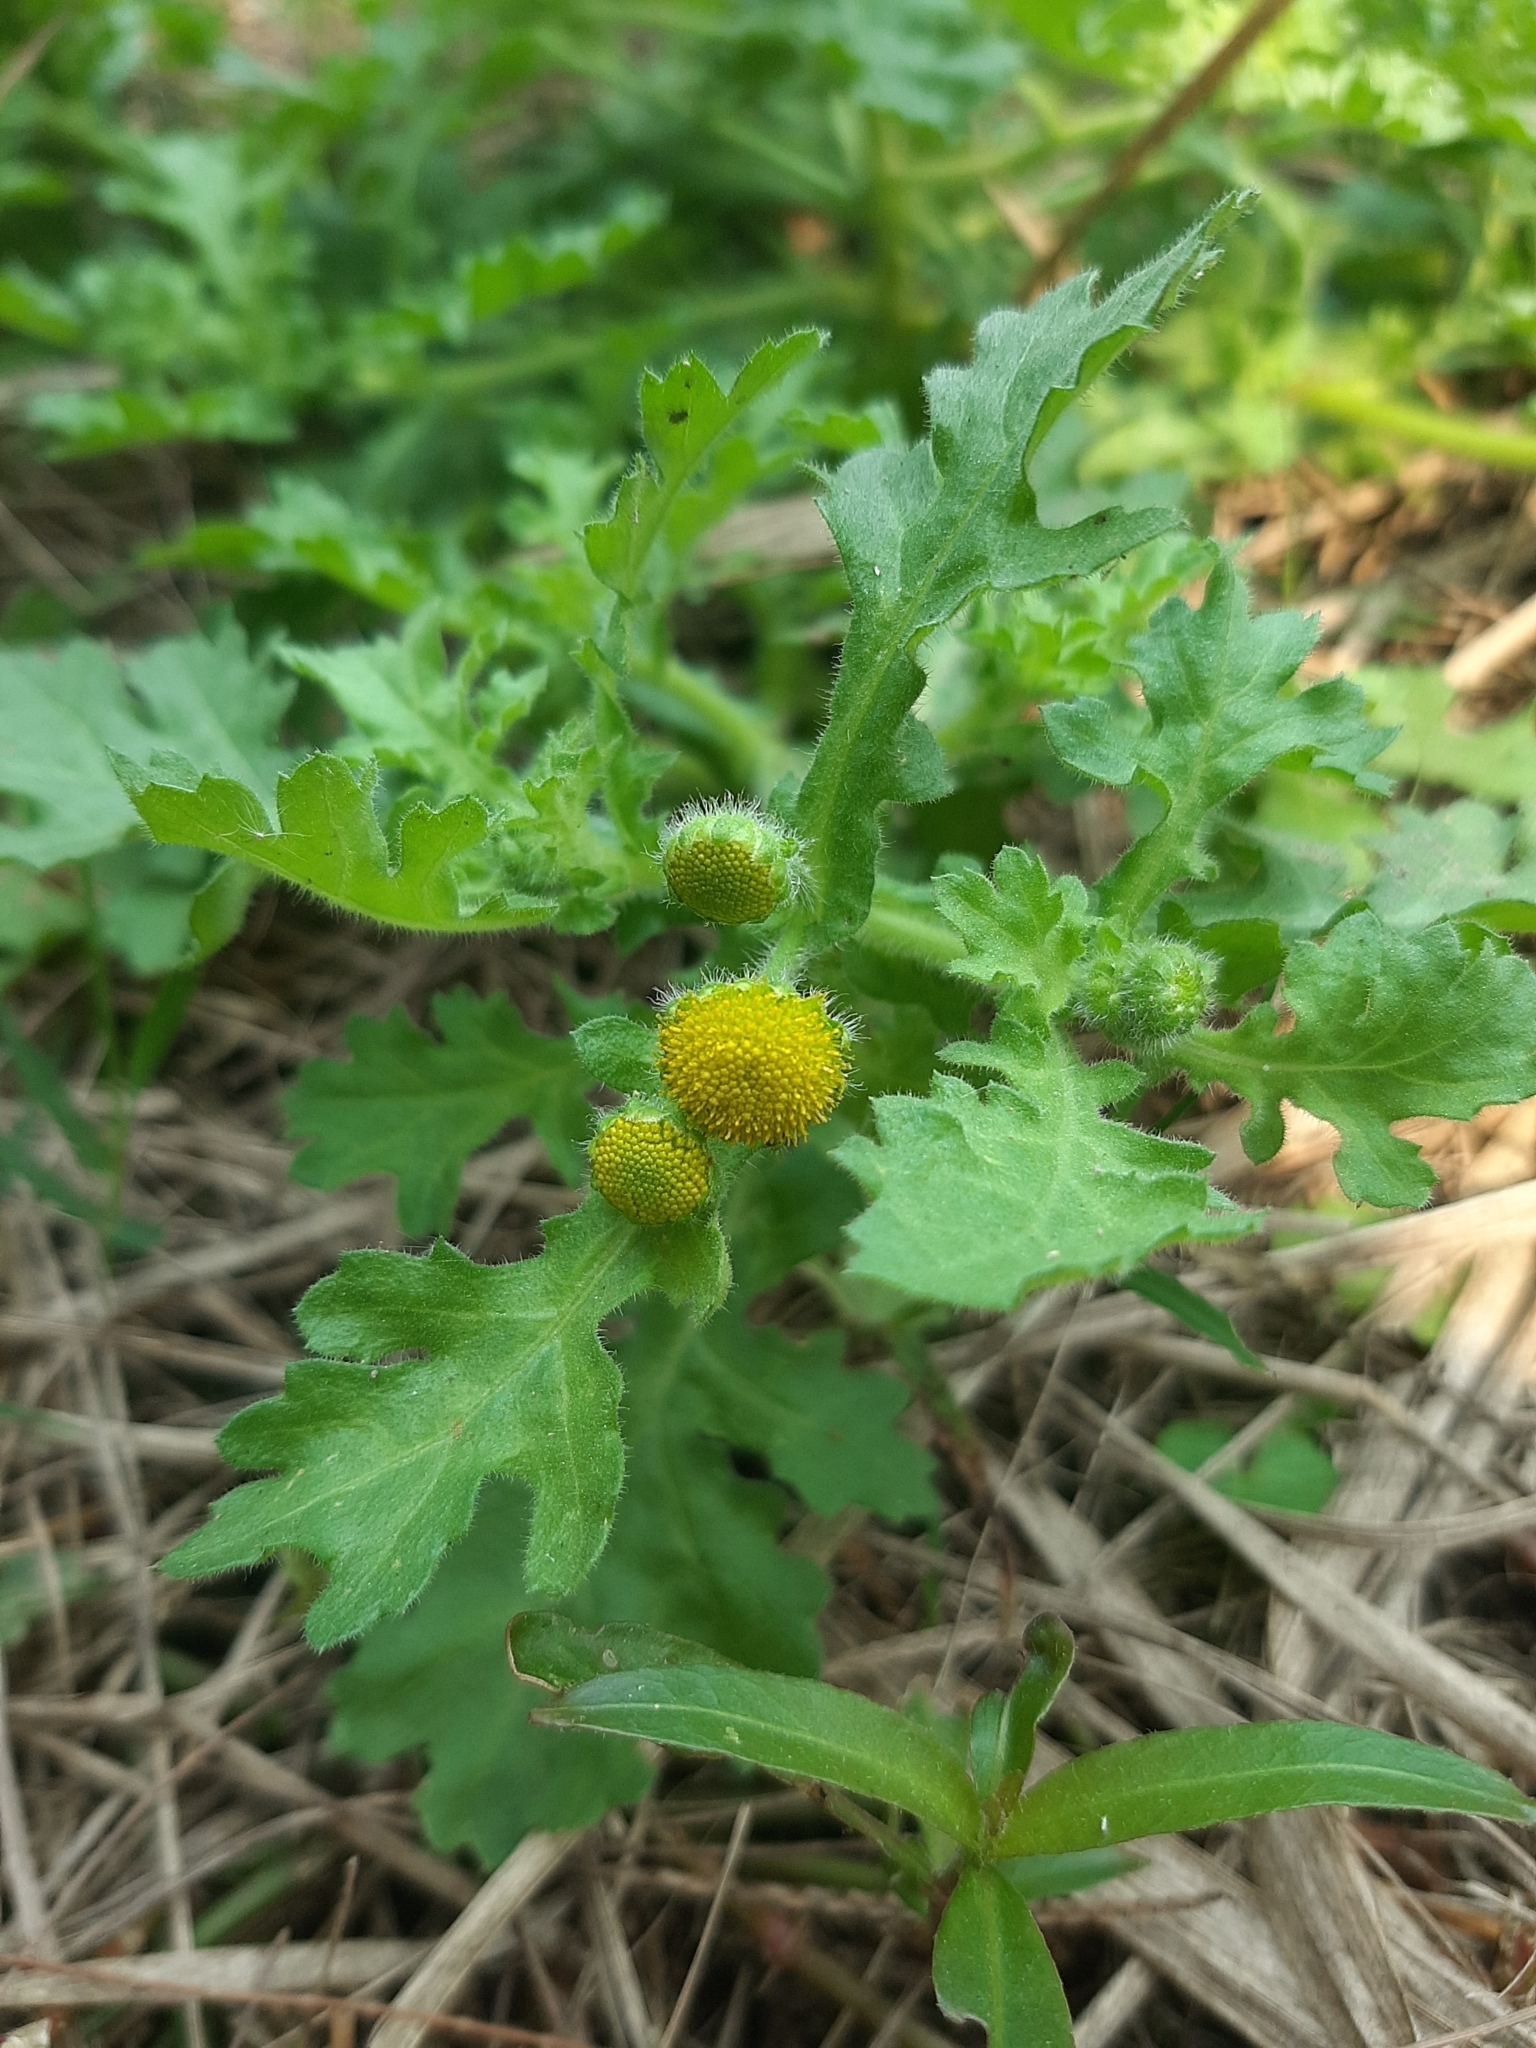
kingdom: Plantae
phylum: Tracheophyta
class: Magnoliopsida
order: Asterales
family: Asteraceae
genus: Grangea
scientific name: Grangea maderaspatana
